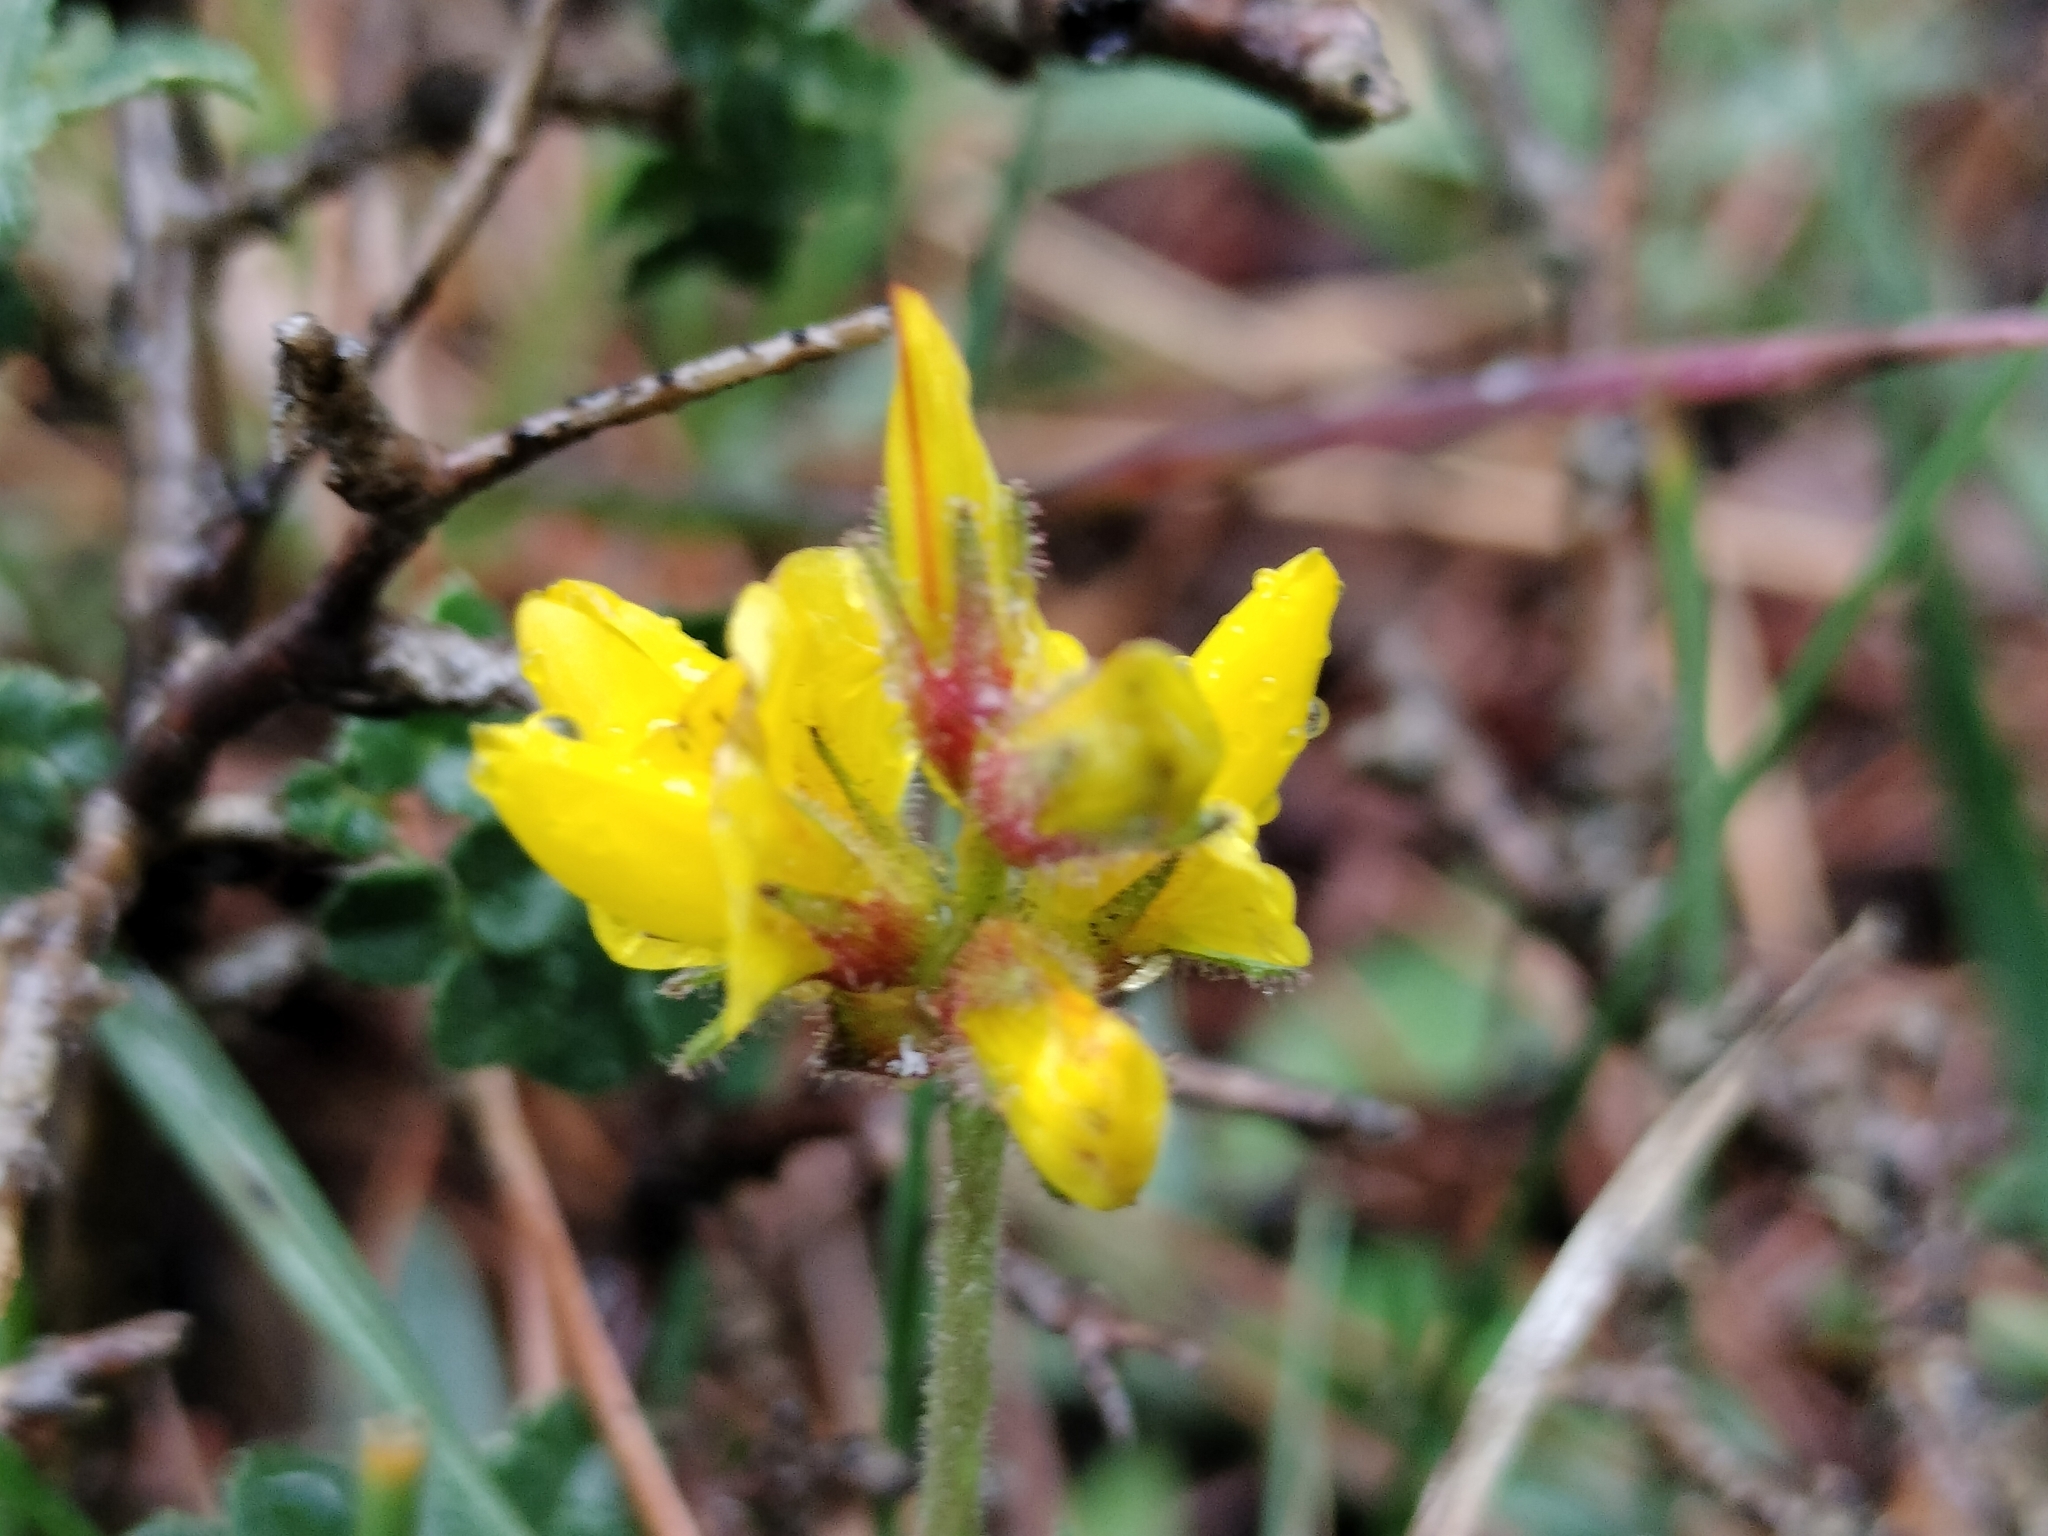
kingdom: Plantae
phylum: Tracheophyta
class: Magnoliopsida
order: Fabales
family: Fabaceae
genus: Ononis
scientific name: Ononis aragonensis
